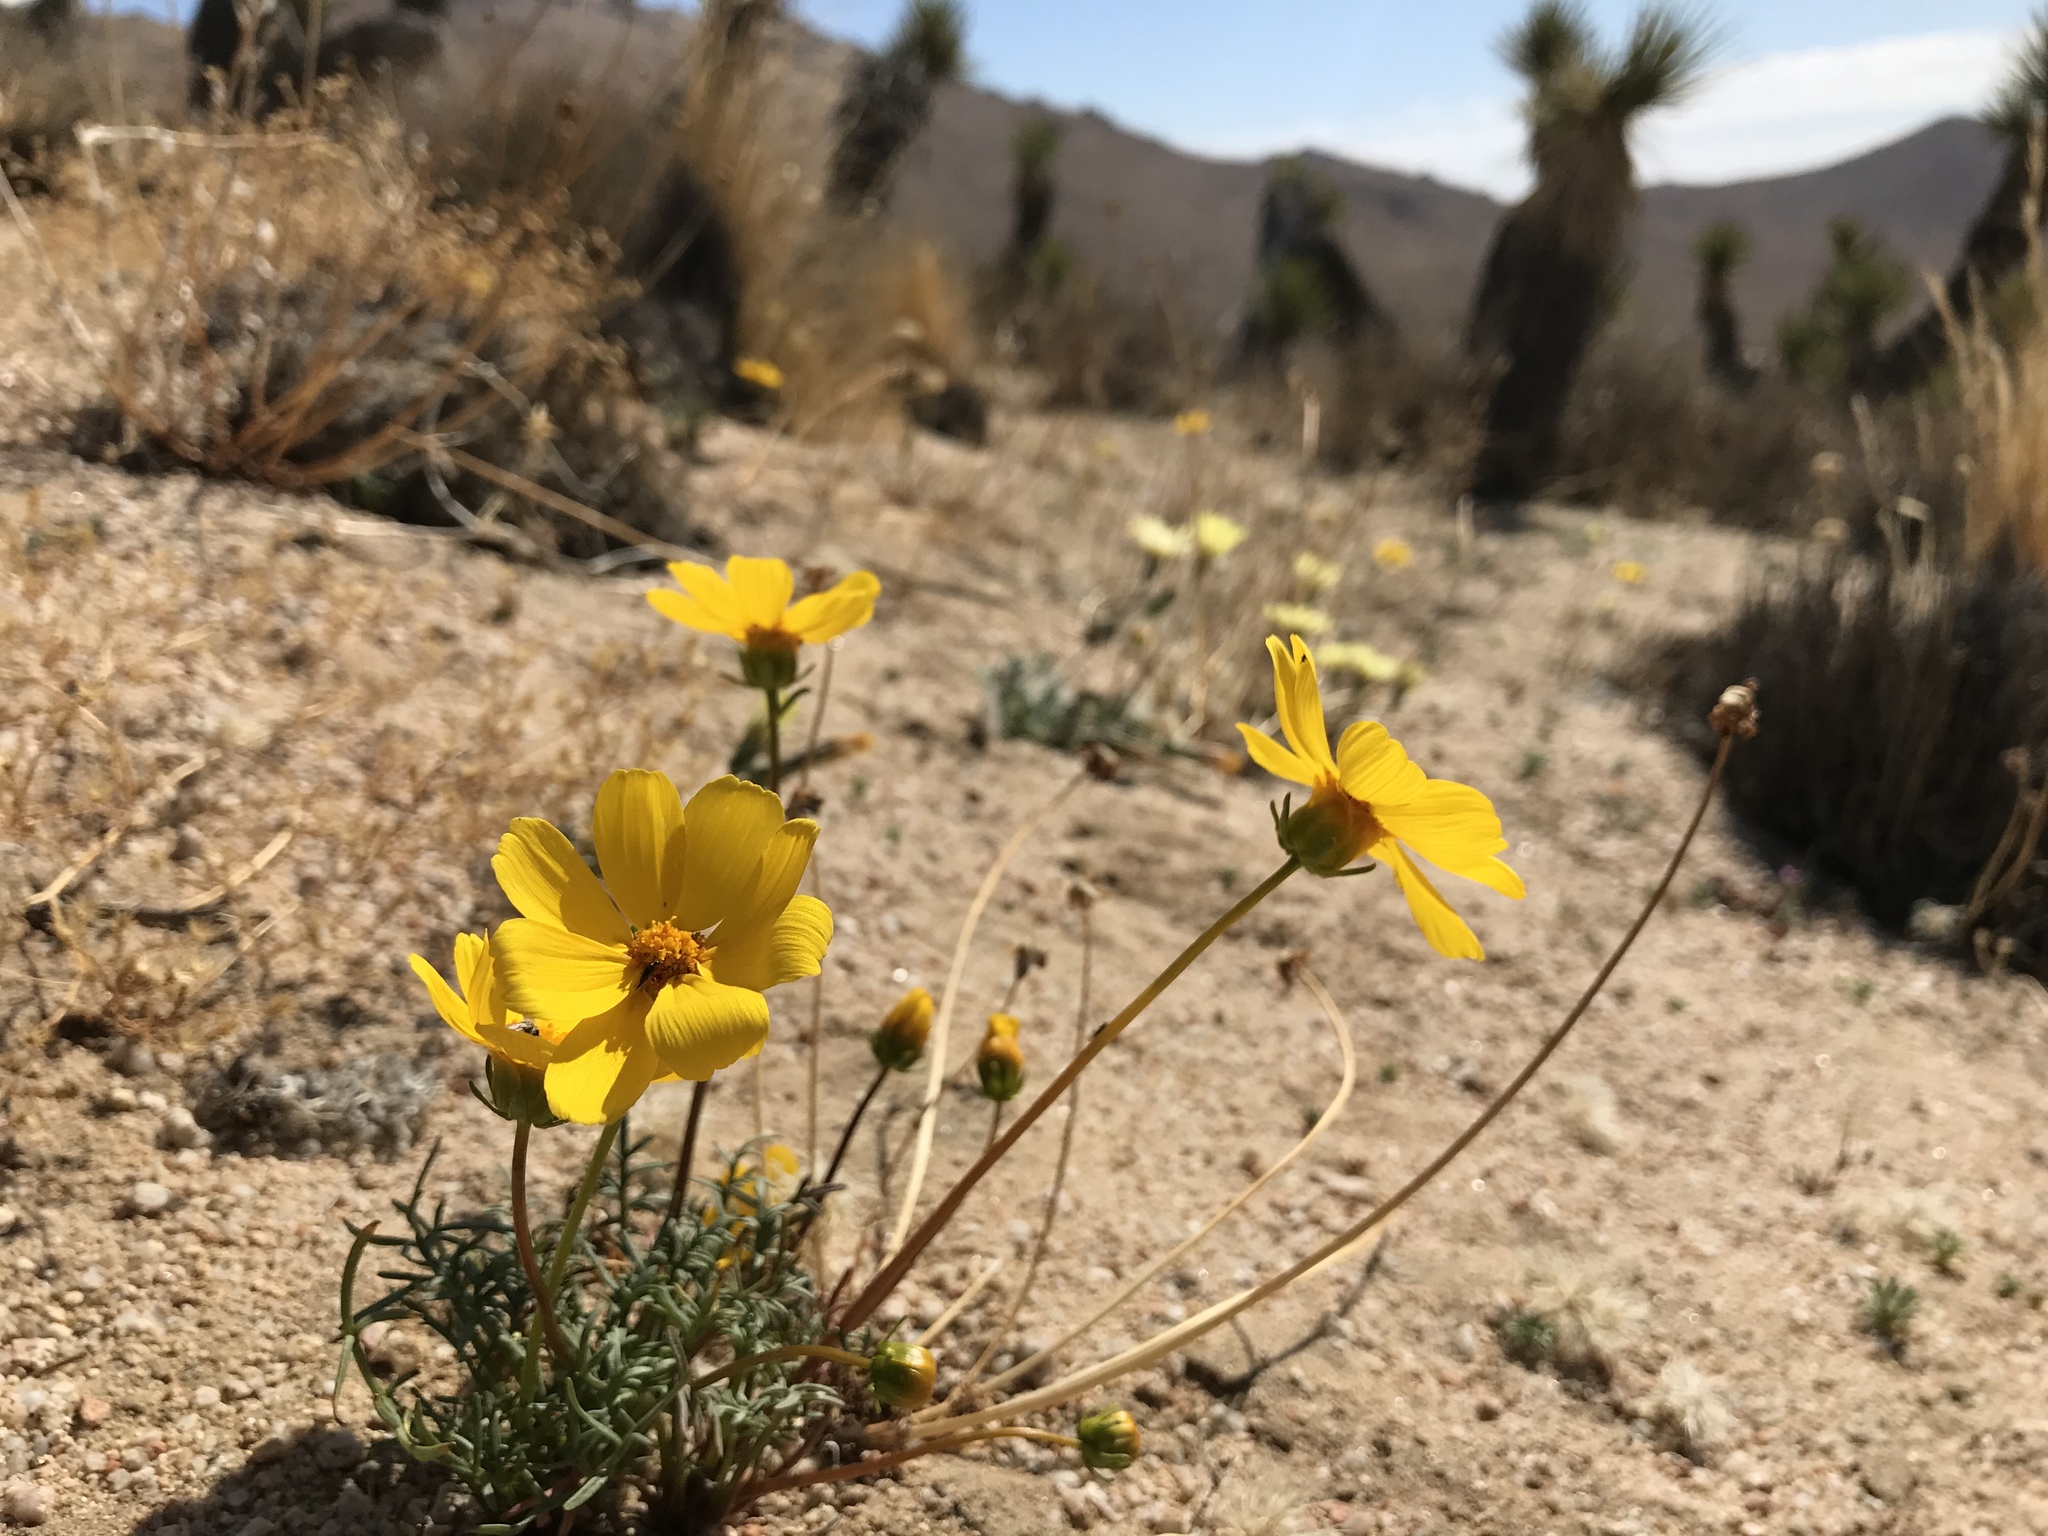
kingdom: Plantae
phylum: Tracheophyta
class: Magnoliopsida
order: Asterales
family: Asteraceae
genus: Coreopsis
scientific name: Coreopsis bigelovii
